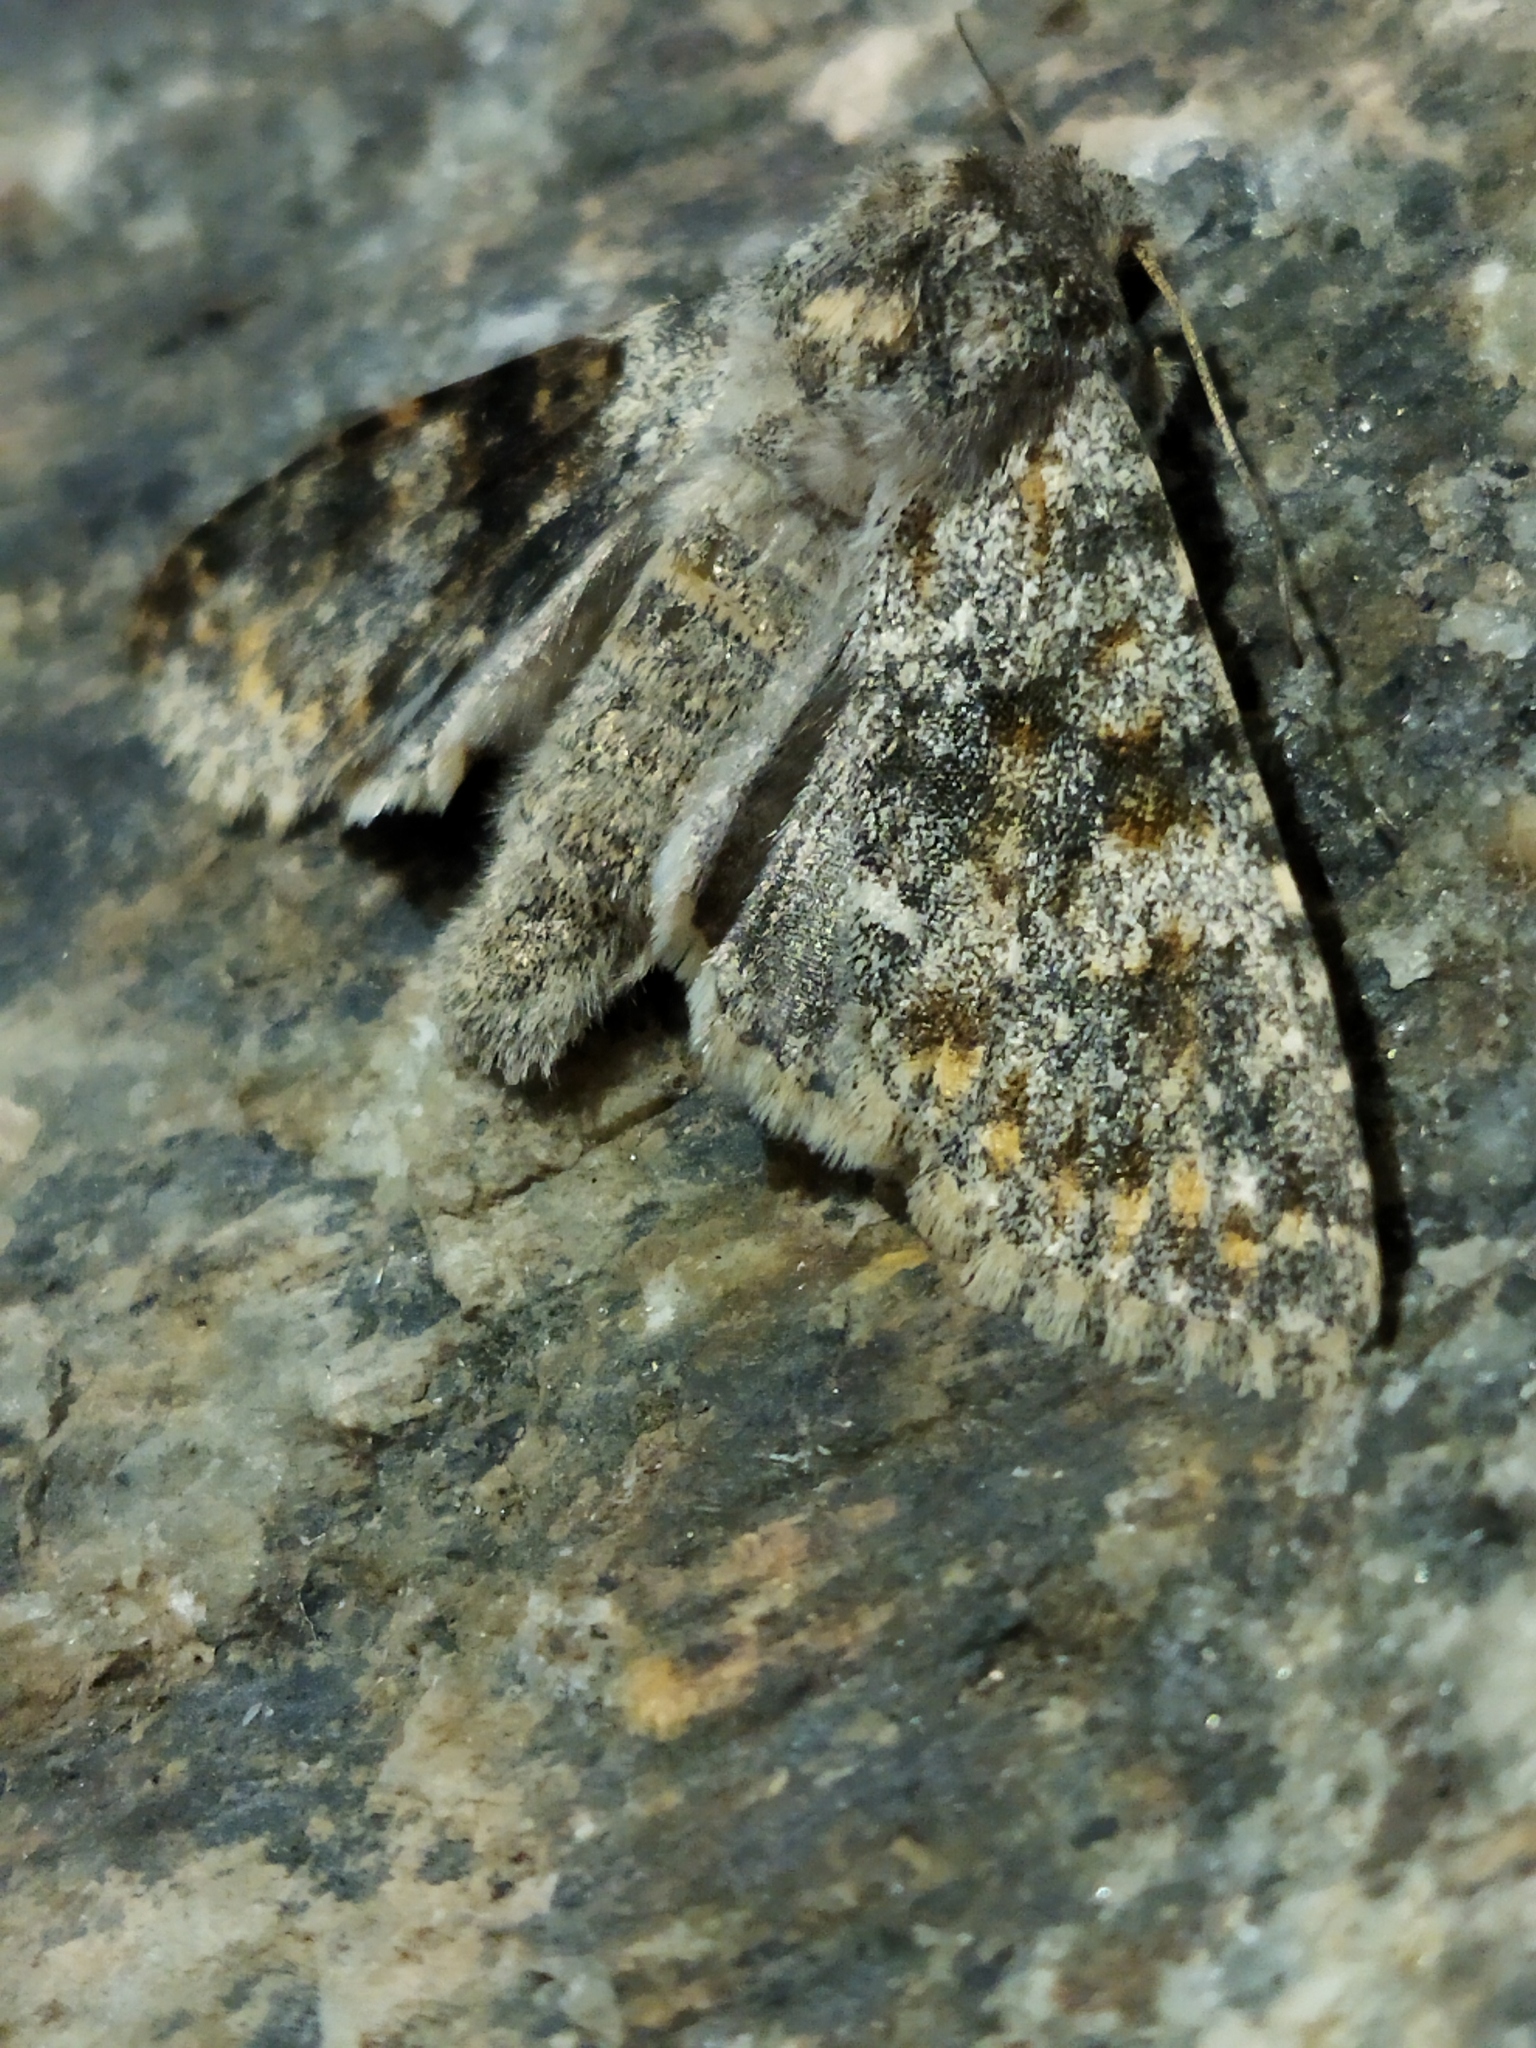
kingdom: Animalia
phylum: Arthropoda
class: Insecta
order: Lepidoptera
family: Noctuidae
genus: Polymixis
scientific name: Polymixis rufocincta
